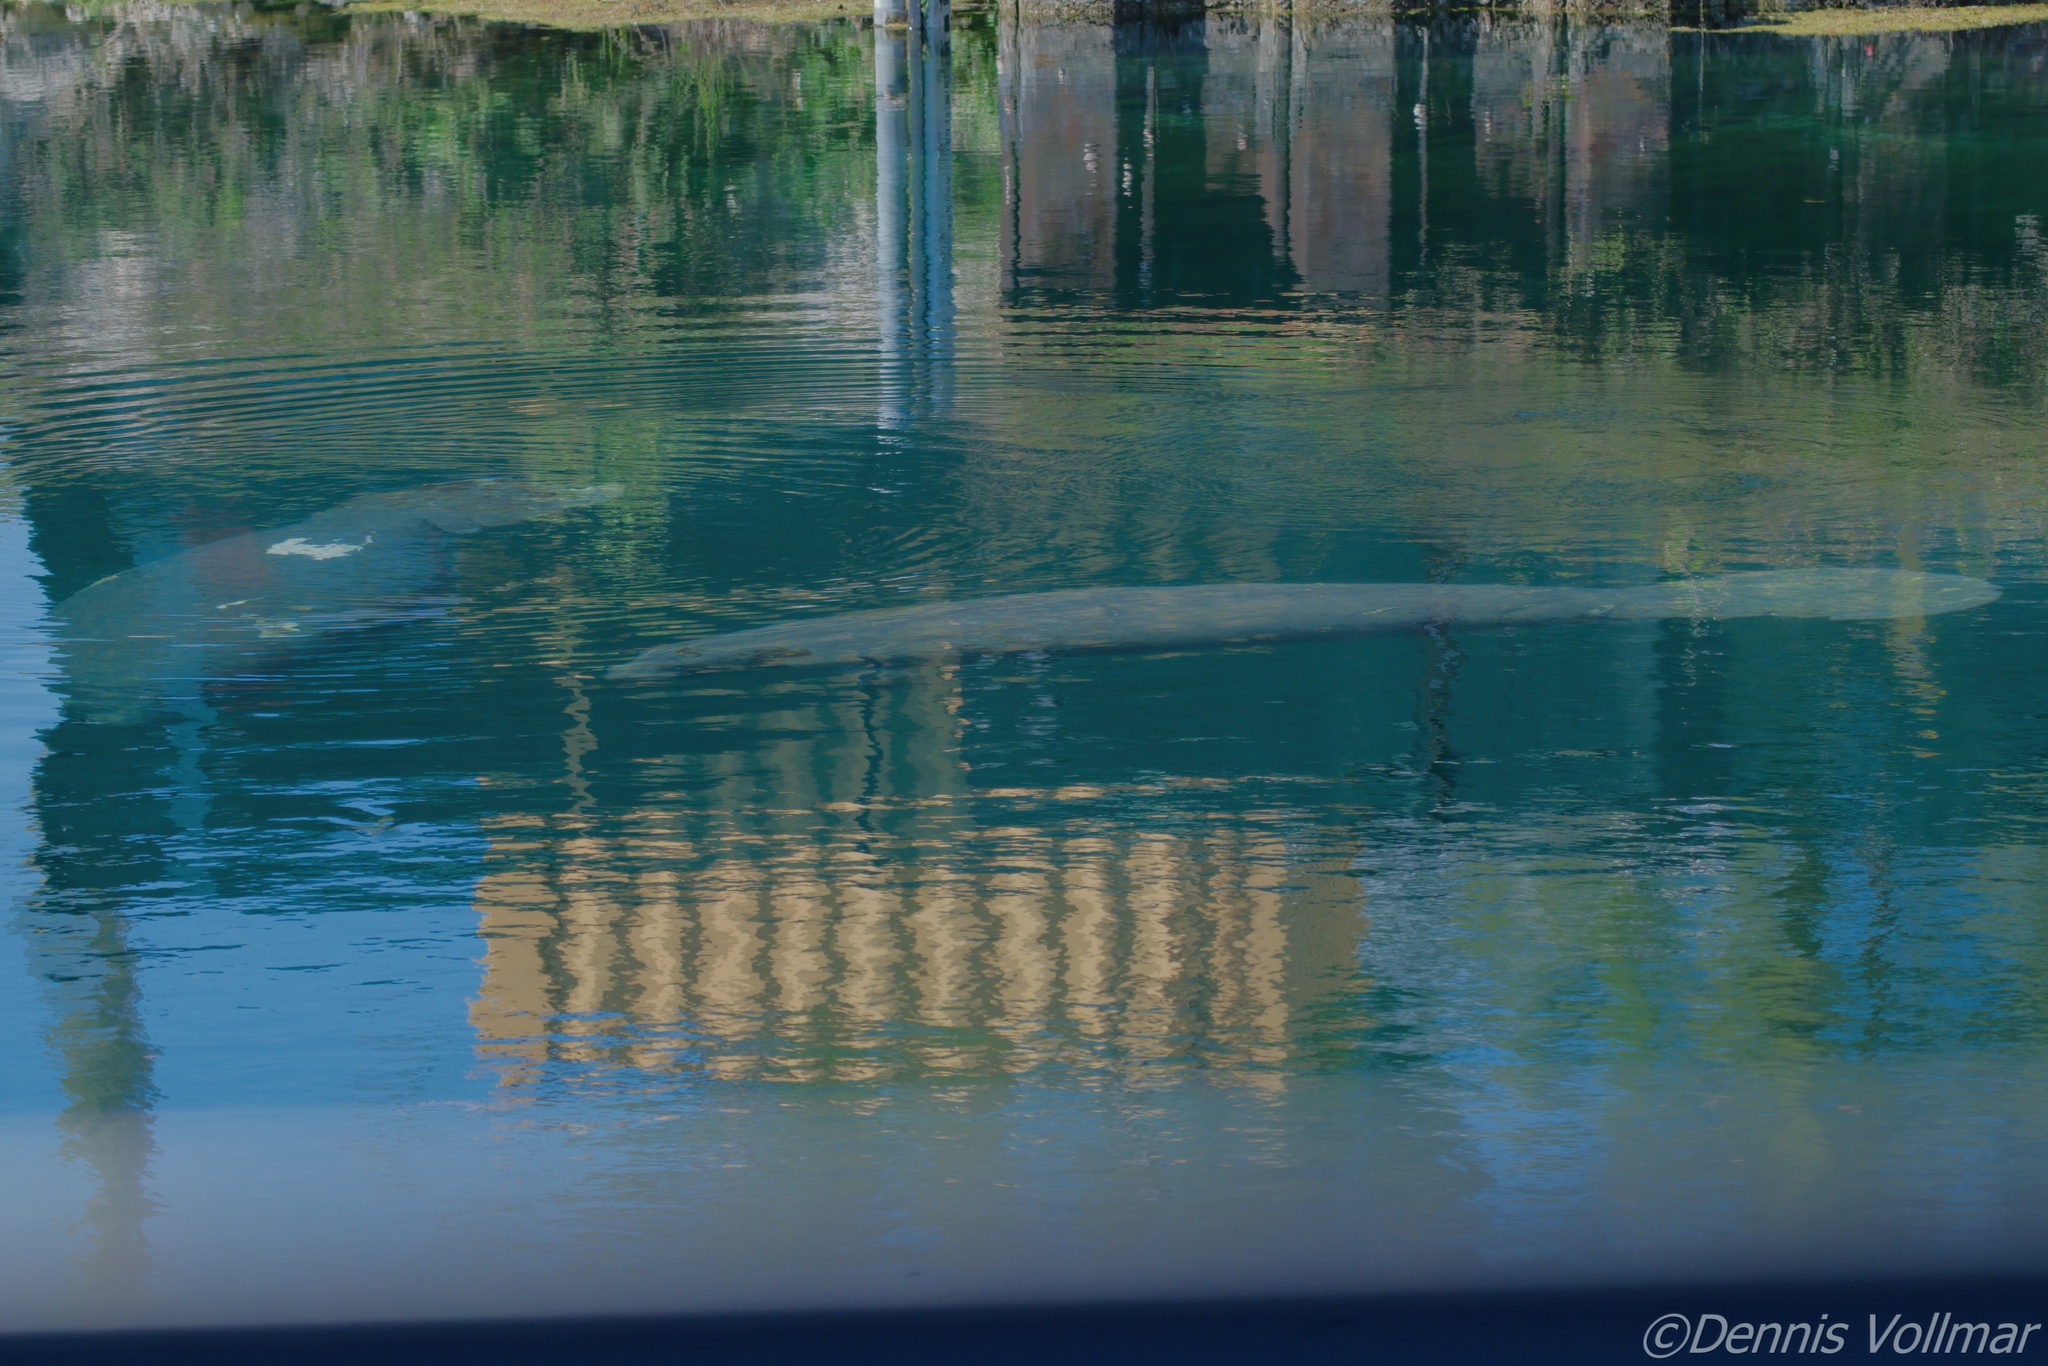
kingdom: Animalia
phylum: Chordata
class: Mammalia
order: Sirenia
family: Trichechidae
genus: Trichechus
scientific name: Trichechus manatus
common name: West indian manatee
